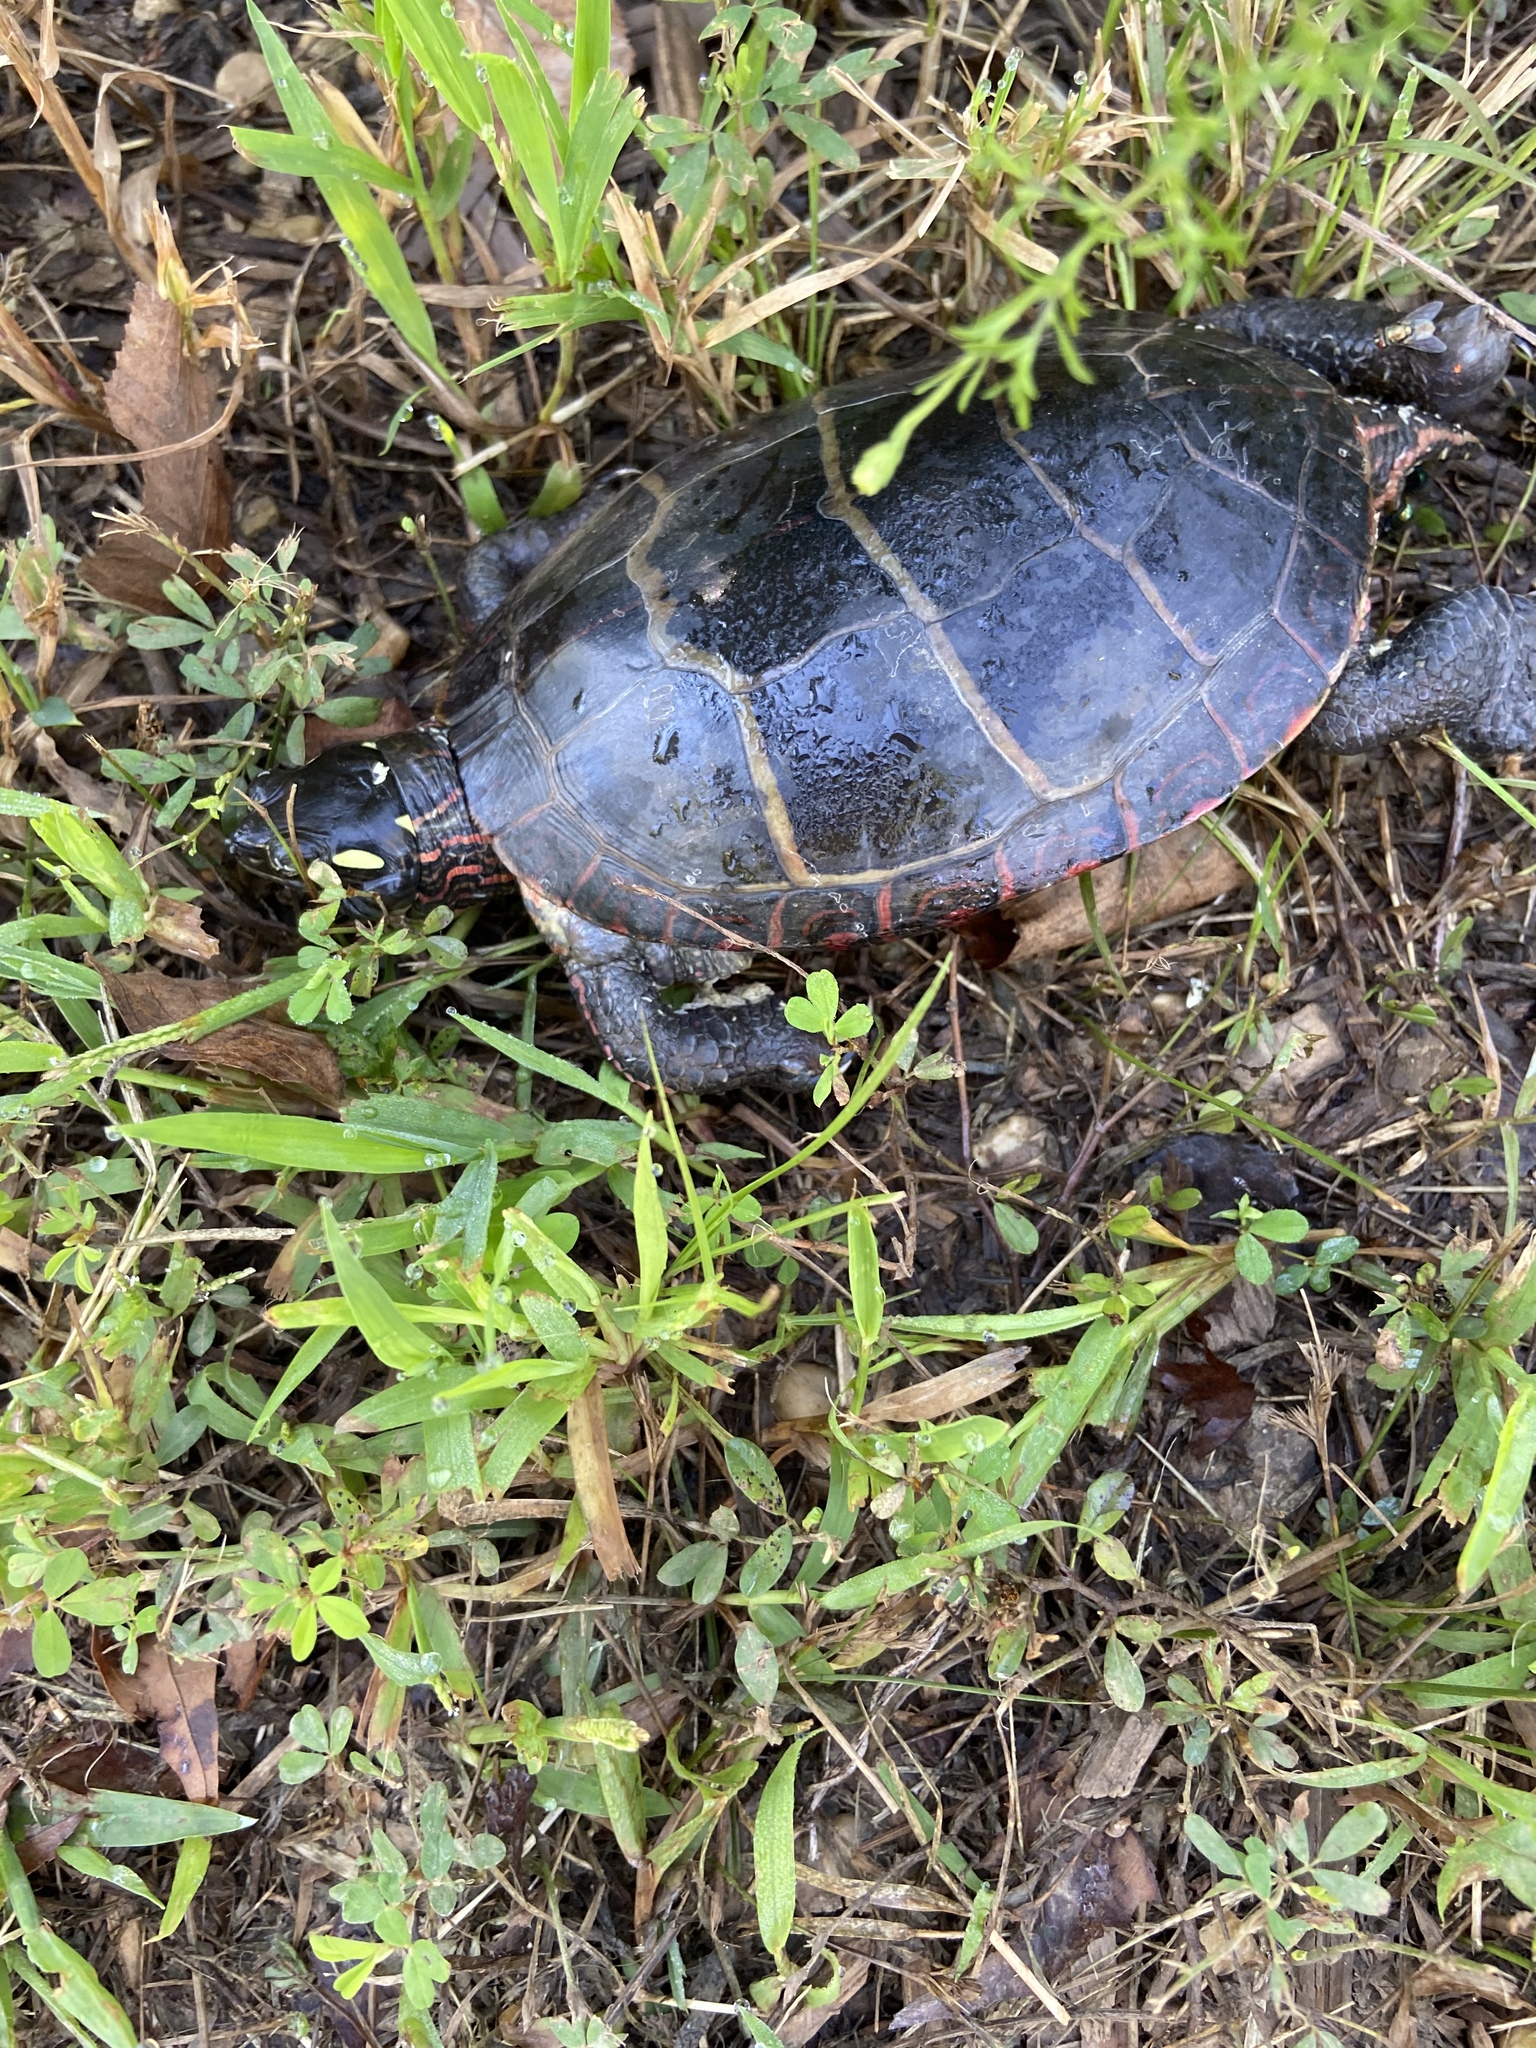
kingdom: Animalia
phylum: Chordata
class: Testudines
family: Emydidae
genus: Chrysemys
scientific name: Chrysemys picta
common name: Painted turtle
